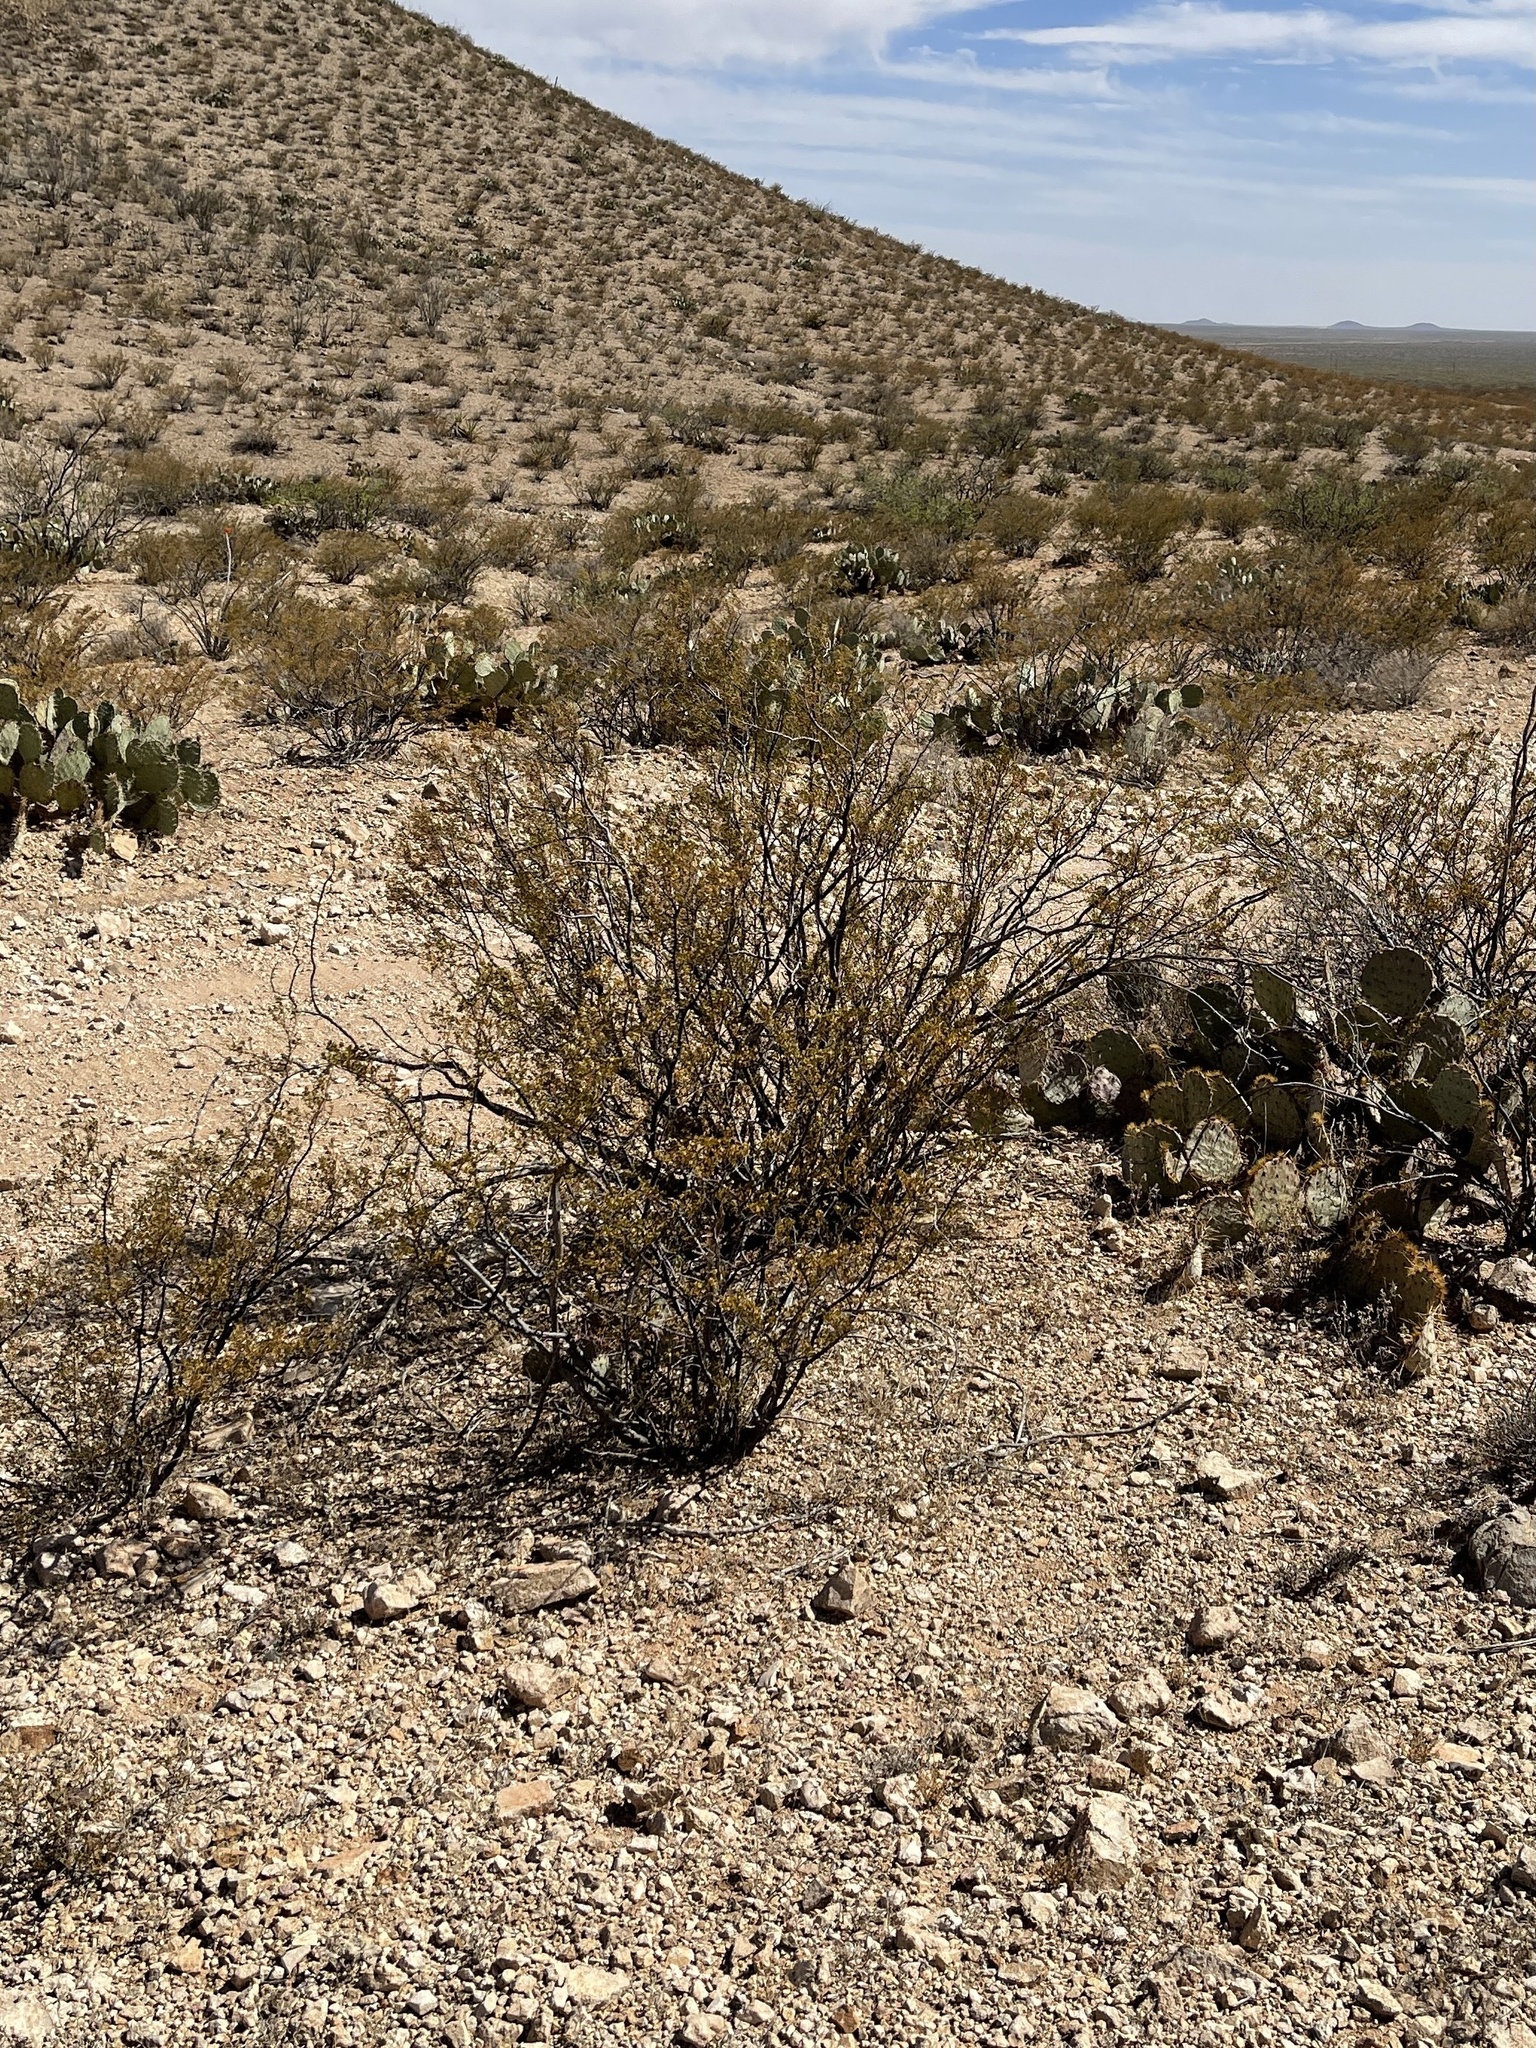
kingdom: Plantae
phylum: Tracheophyta
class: Magnoliopsida
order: Zygophyllales
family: Zygophyllaceae
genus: Larrea
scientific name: Larrea tridentata
